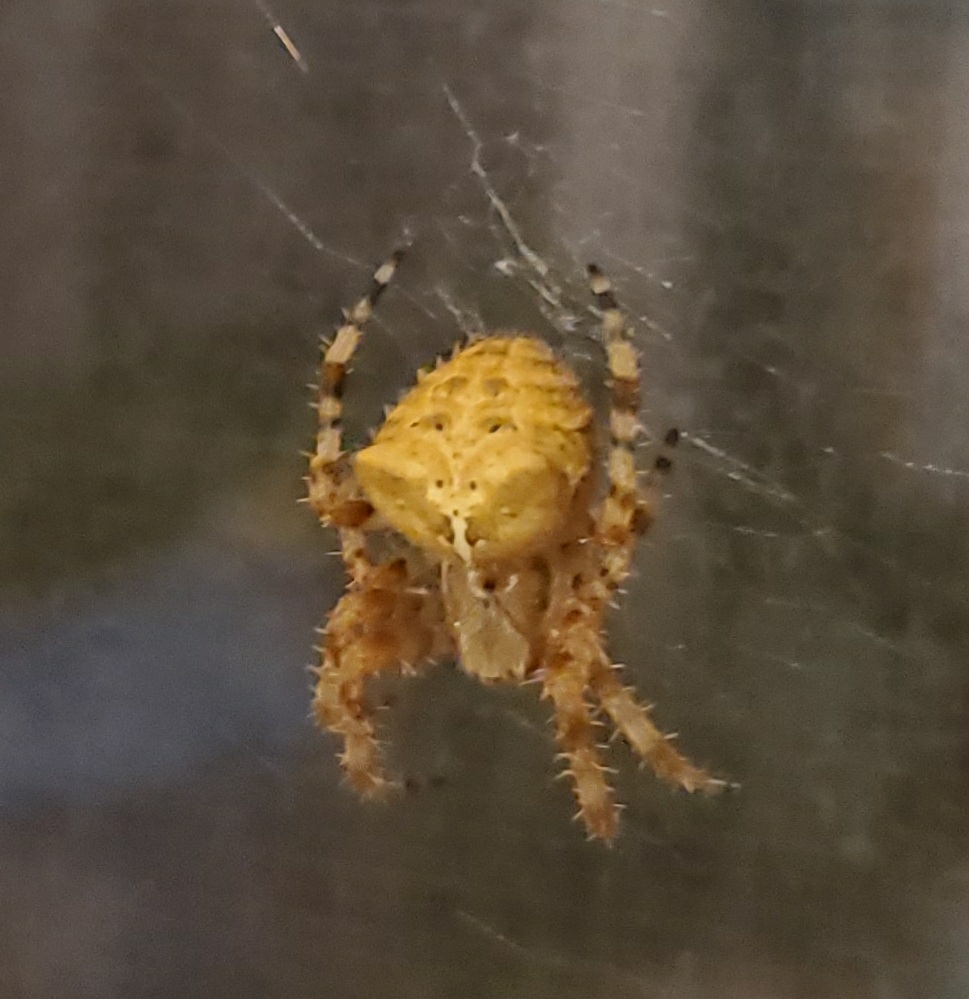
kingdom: Animalia
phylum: Arthropoda
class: Arachnida
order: Araneae
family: Araneidae
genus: Araneus
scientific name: Araneus gemmoides
